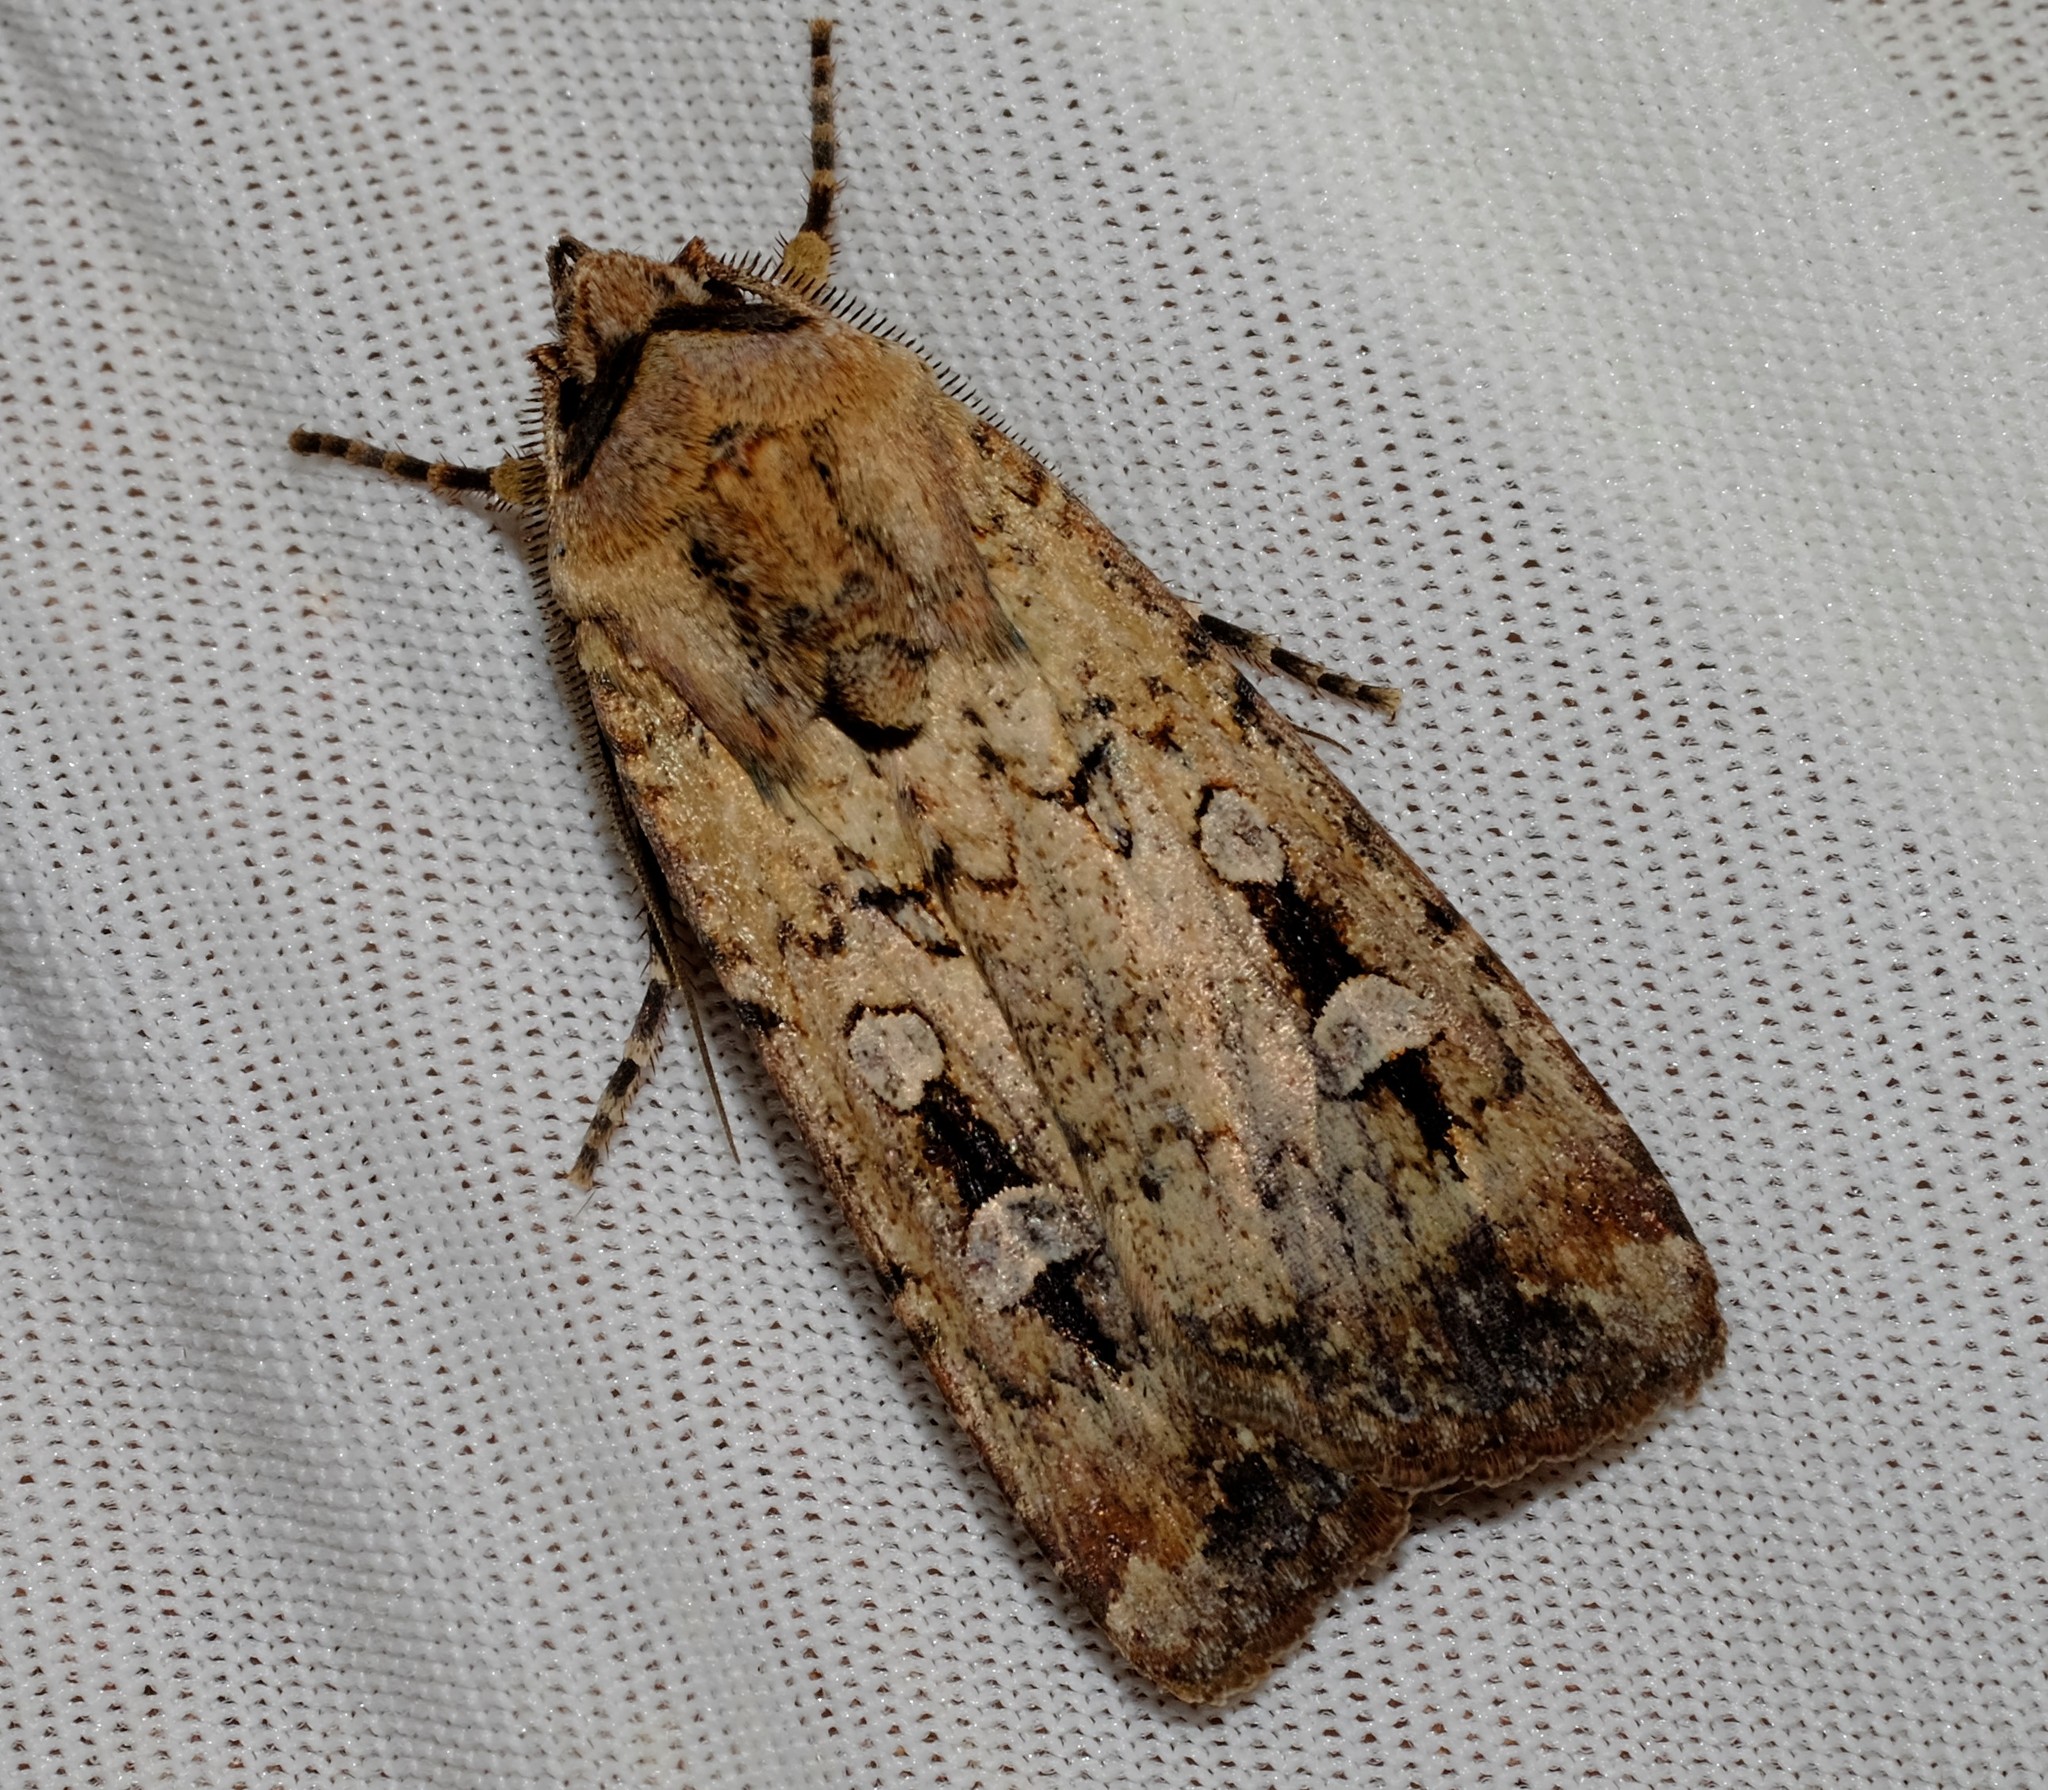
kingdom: Animalia
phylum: Arthropoda
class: Insecta
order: Lepidoptera
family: Noctuidae
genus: Agrotis
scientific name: Agrotis infusa
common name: Bogong moth
